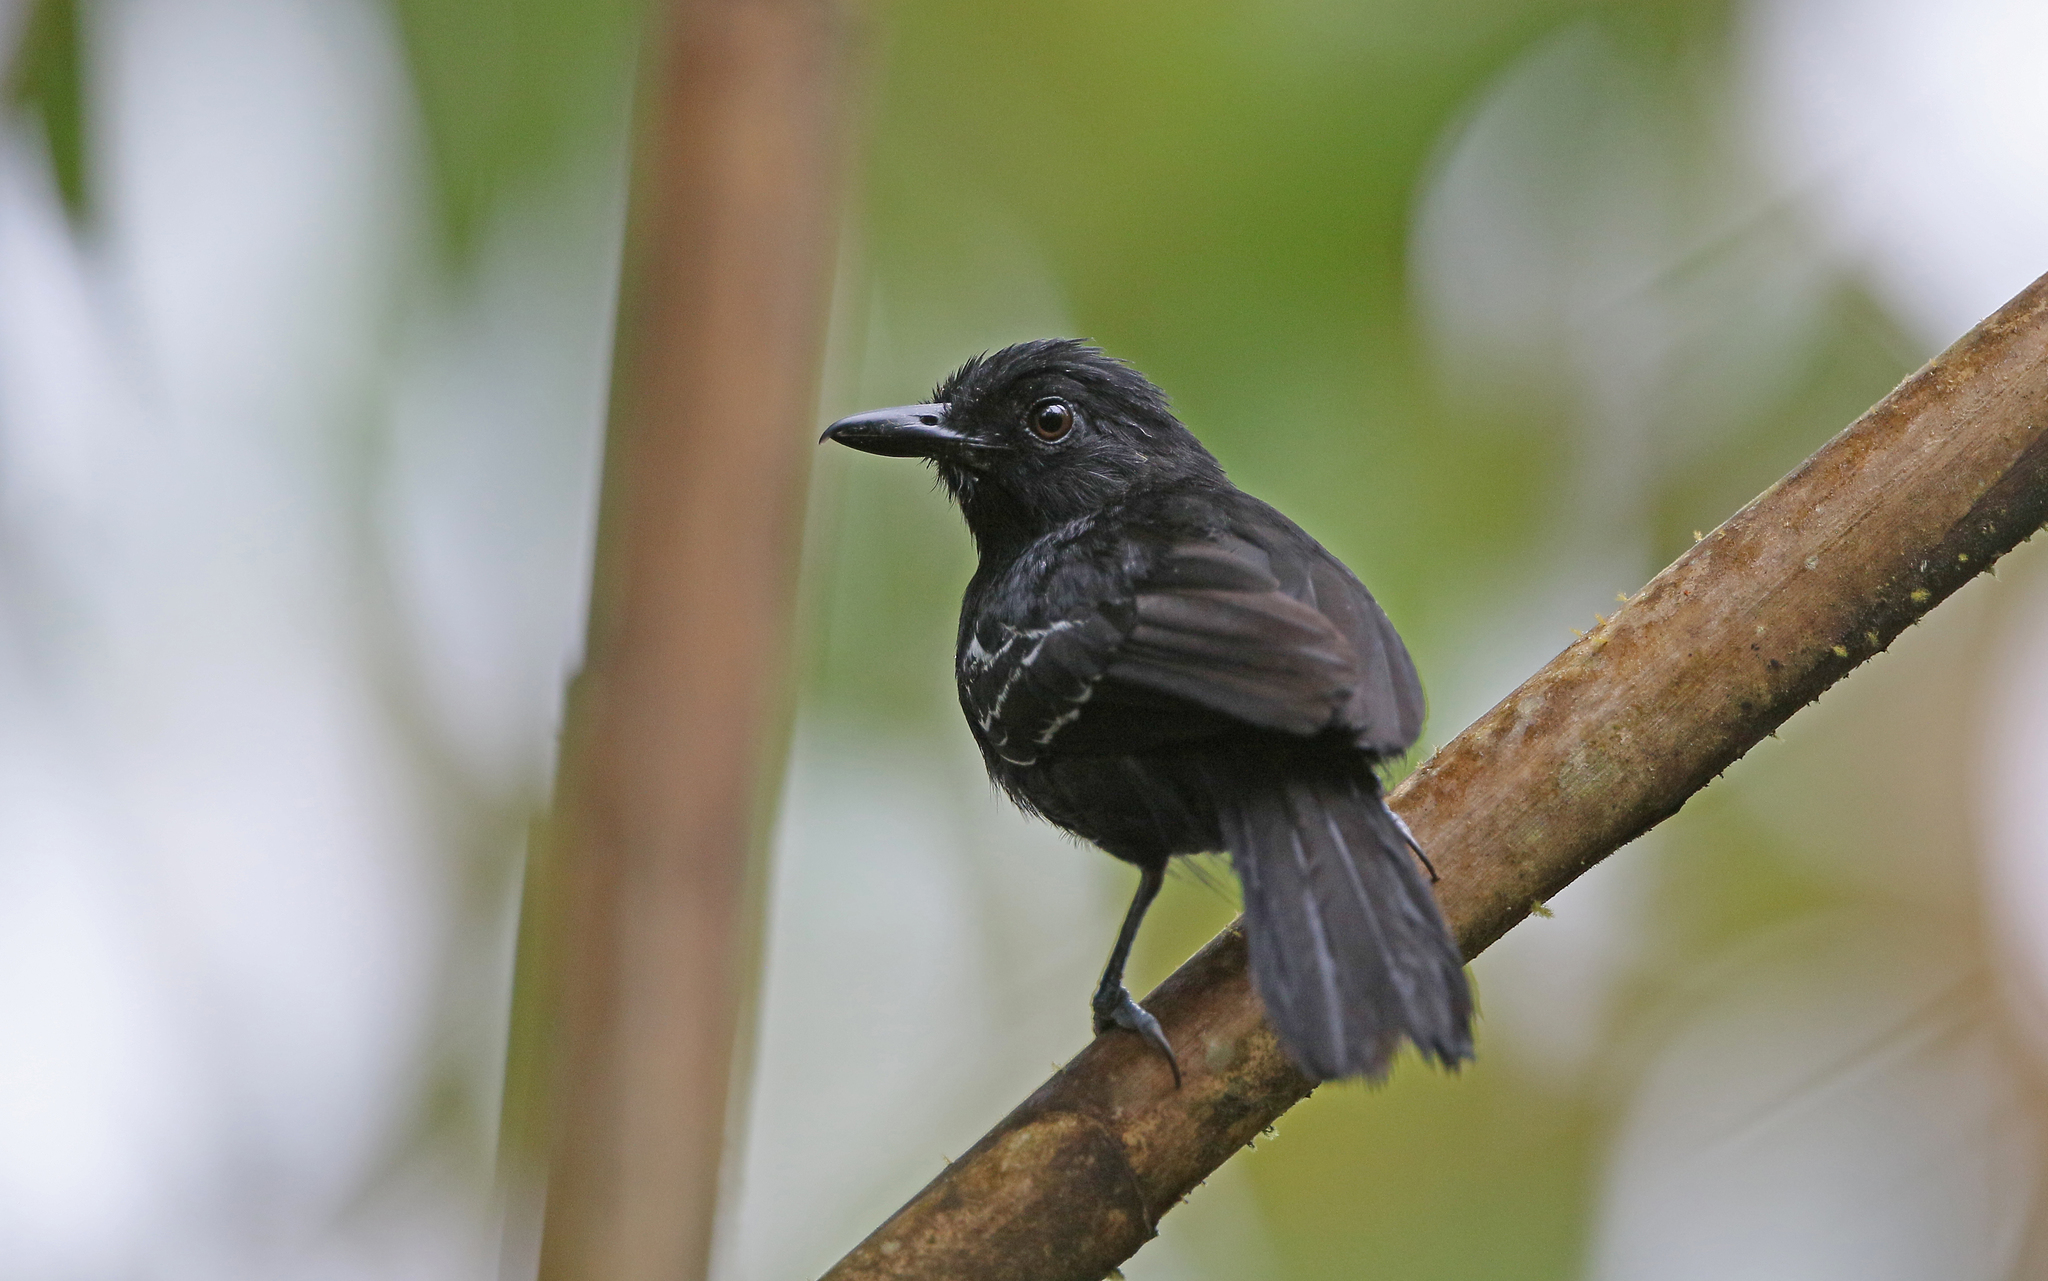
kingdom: Animalia
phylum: Chordata
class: Aves
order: Passeriformes
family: Thamnophilidae
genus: Thamnophilus
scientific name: Thamnophilus cryptoleucus
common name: Castelnau's antshrike
